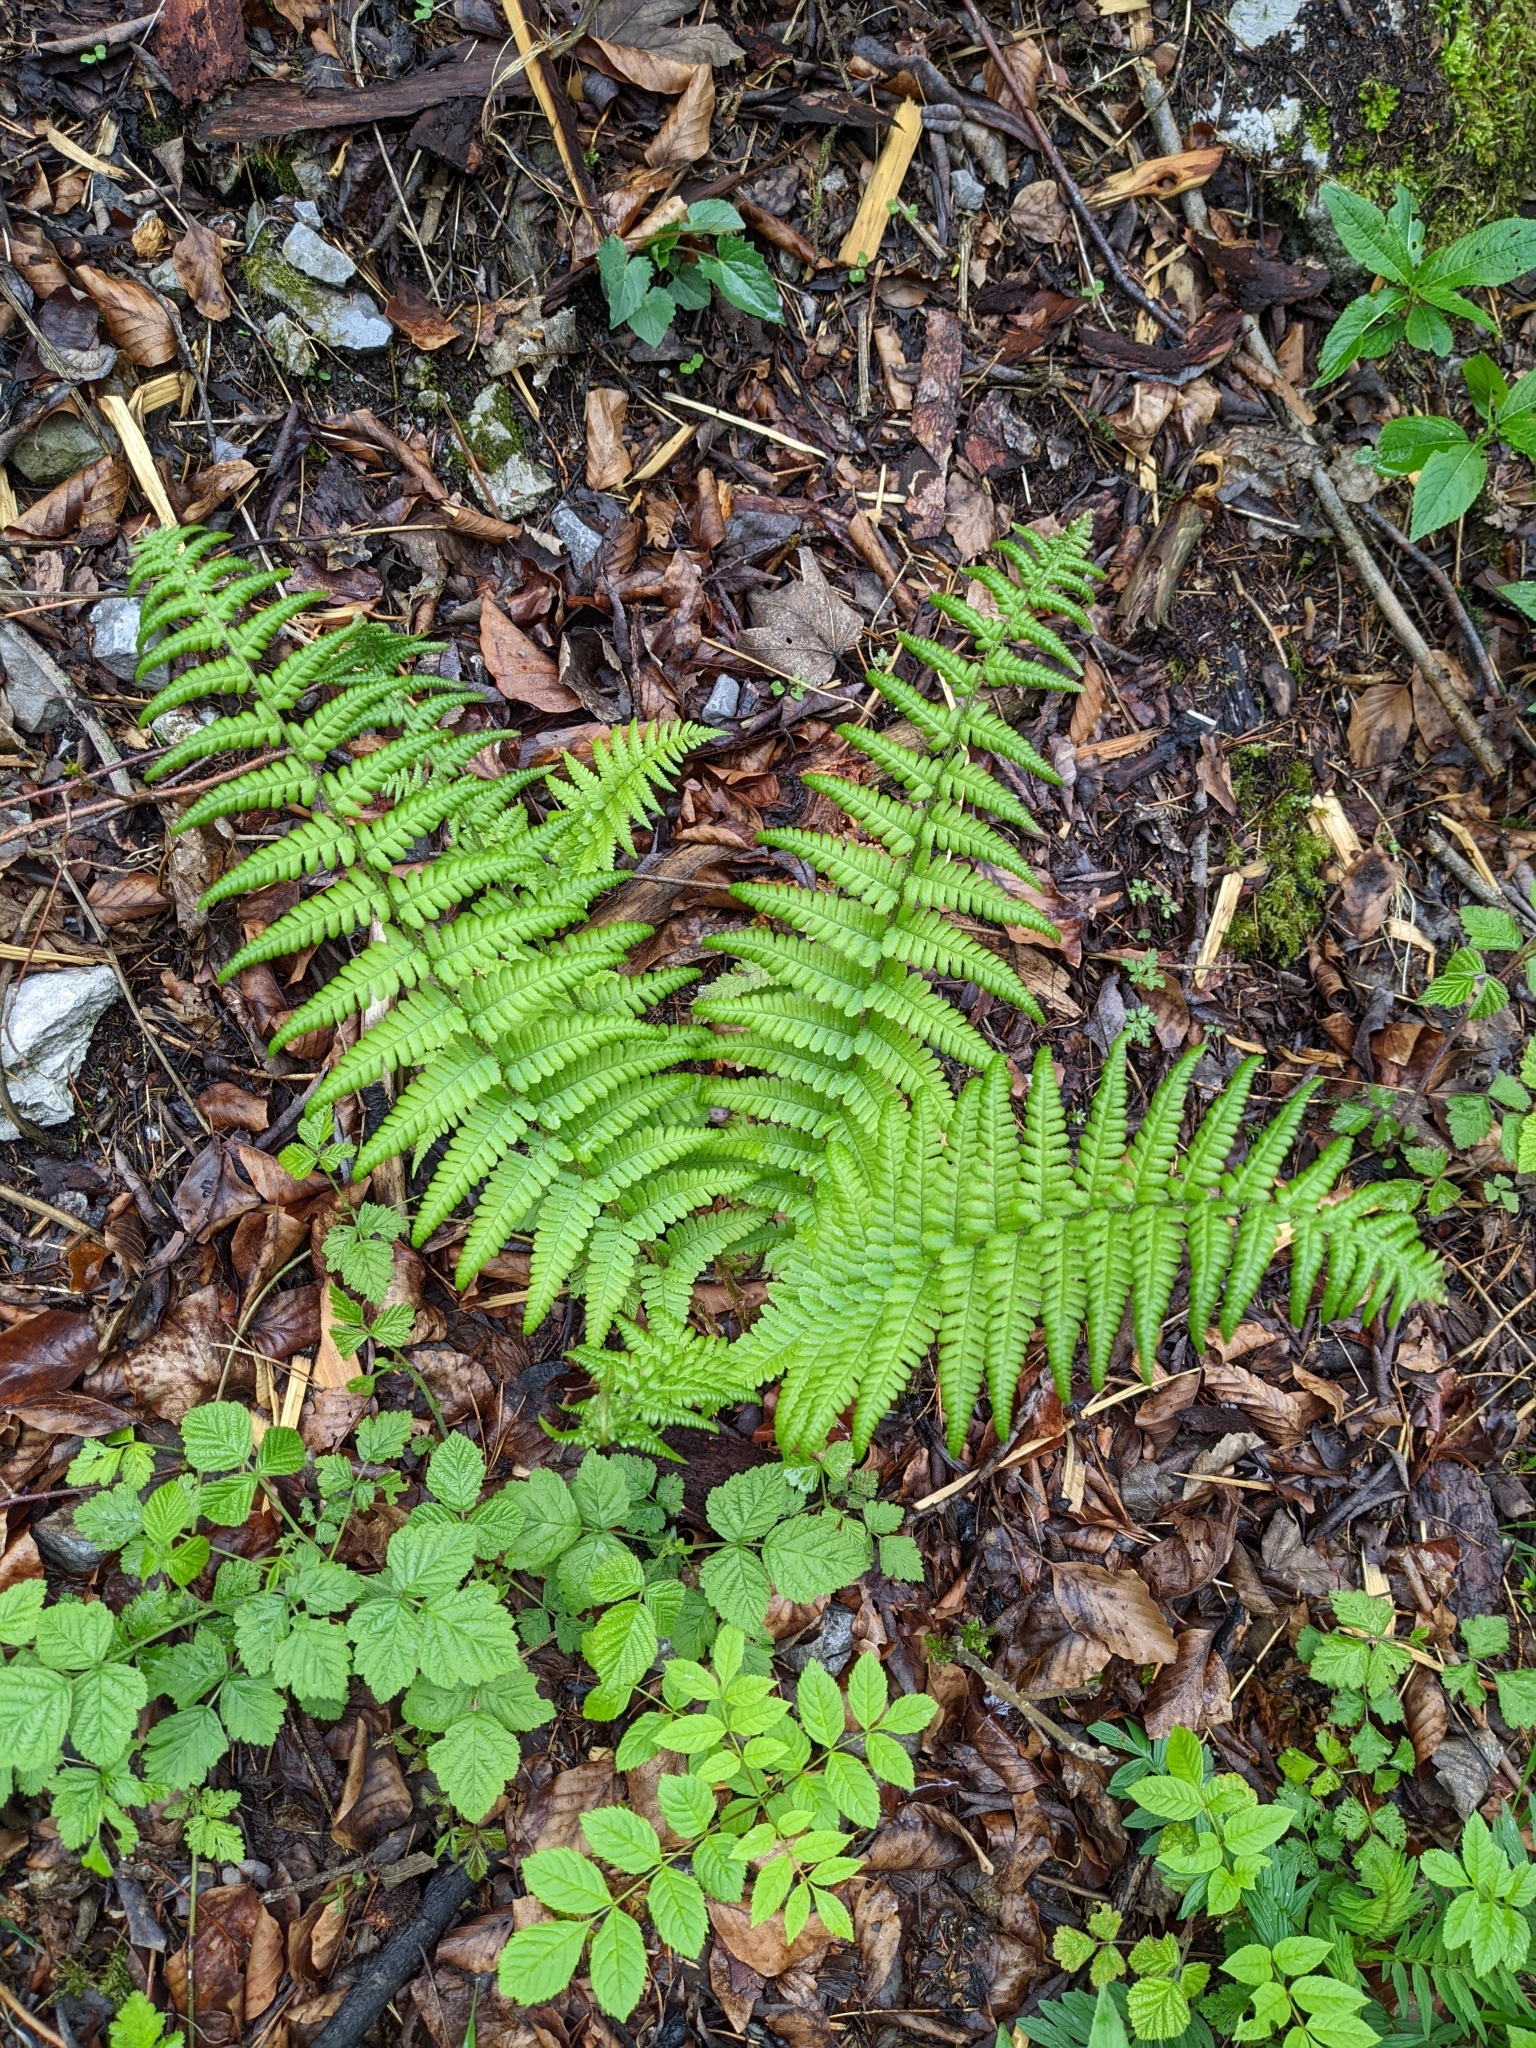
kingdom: Plantae
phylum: Tracheophyta
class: Polypodiopsida
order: Polypodiales
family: Dryopteridaceae
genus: Dryopteris
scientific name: Dryopteris filix-mas
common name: Male fern
